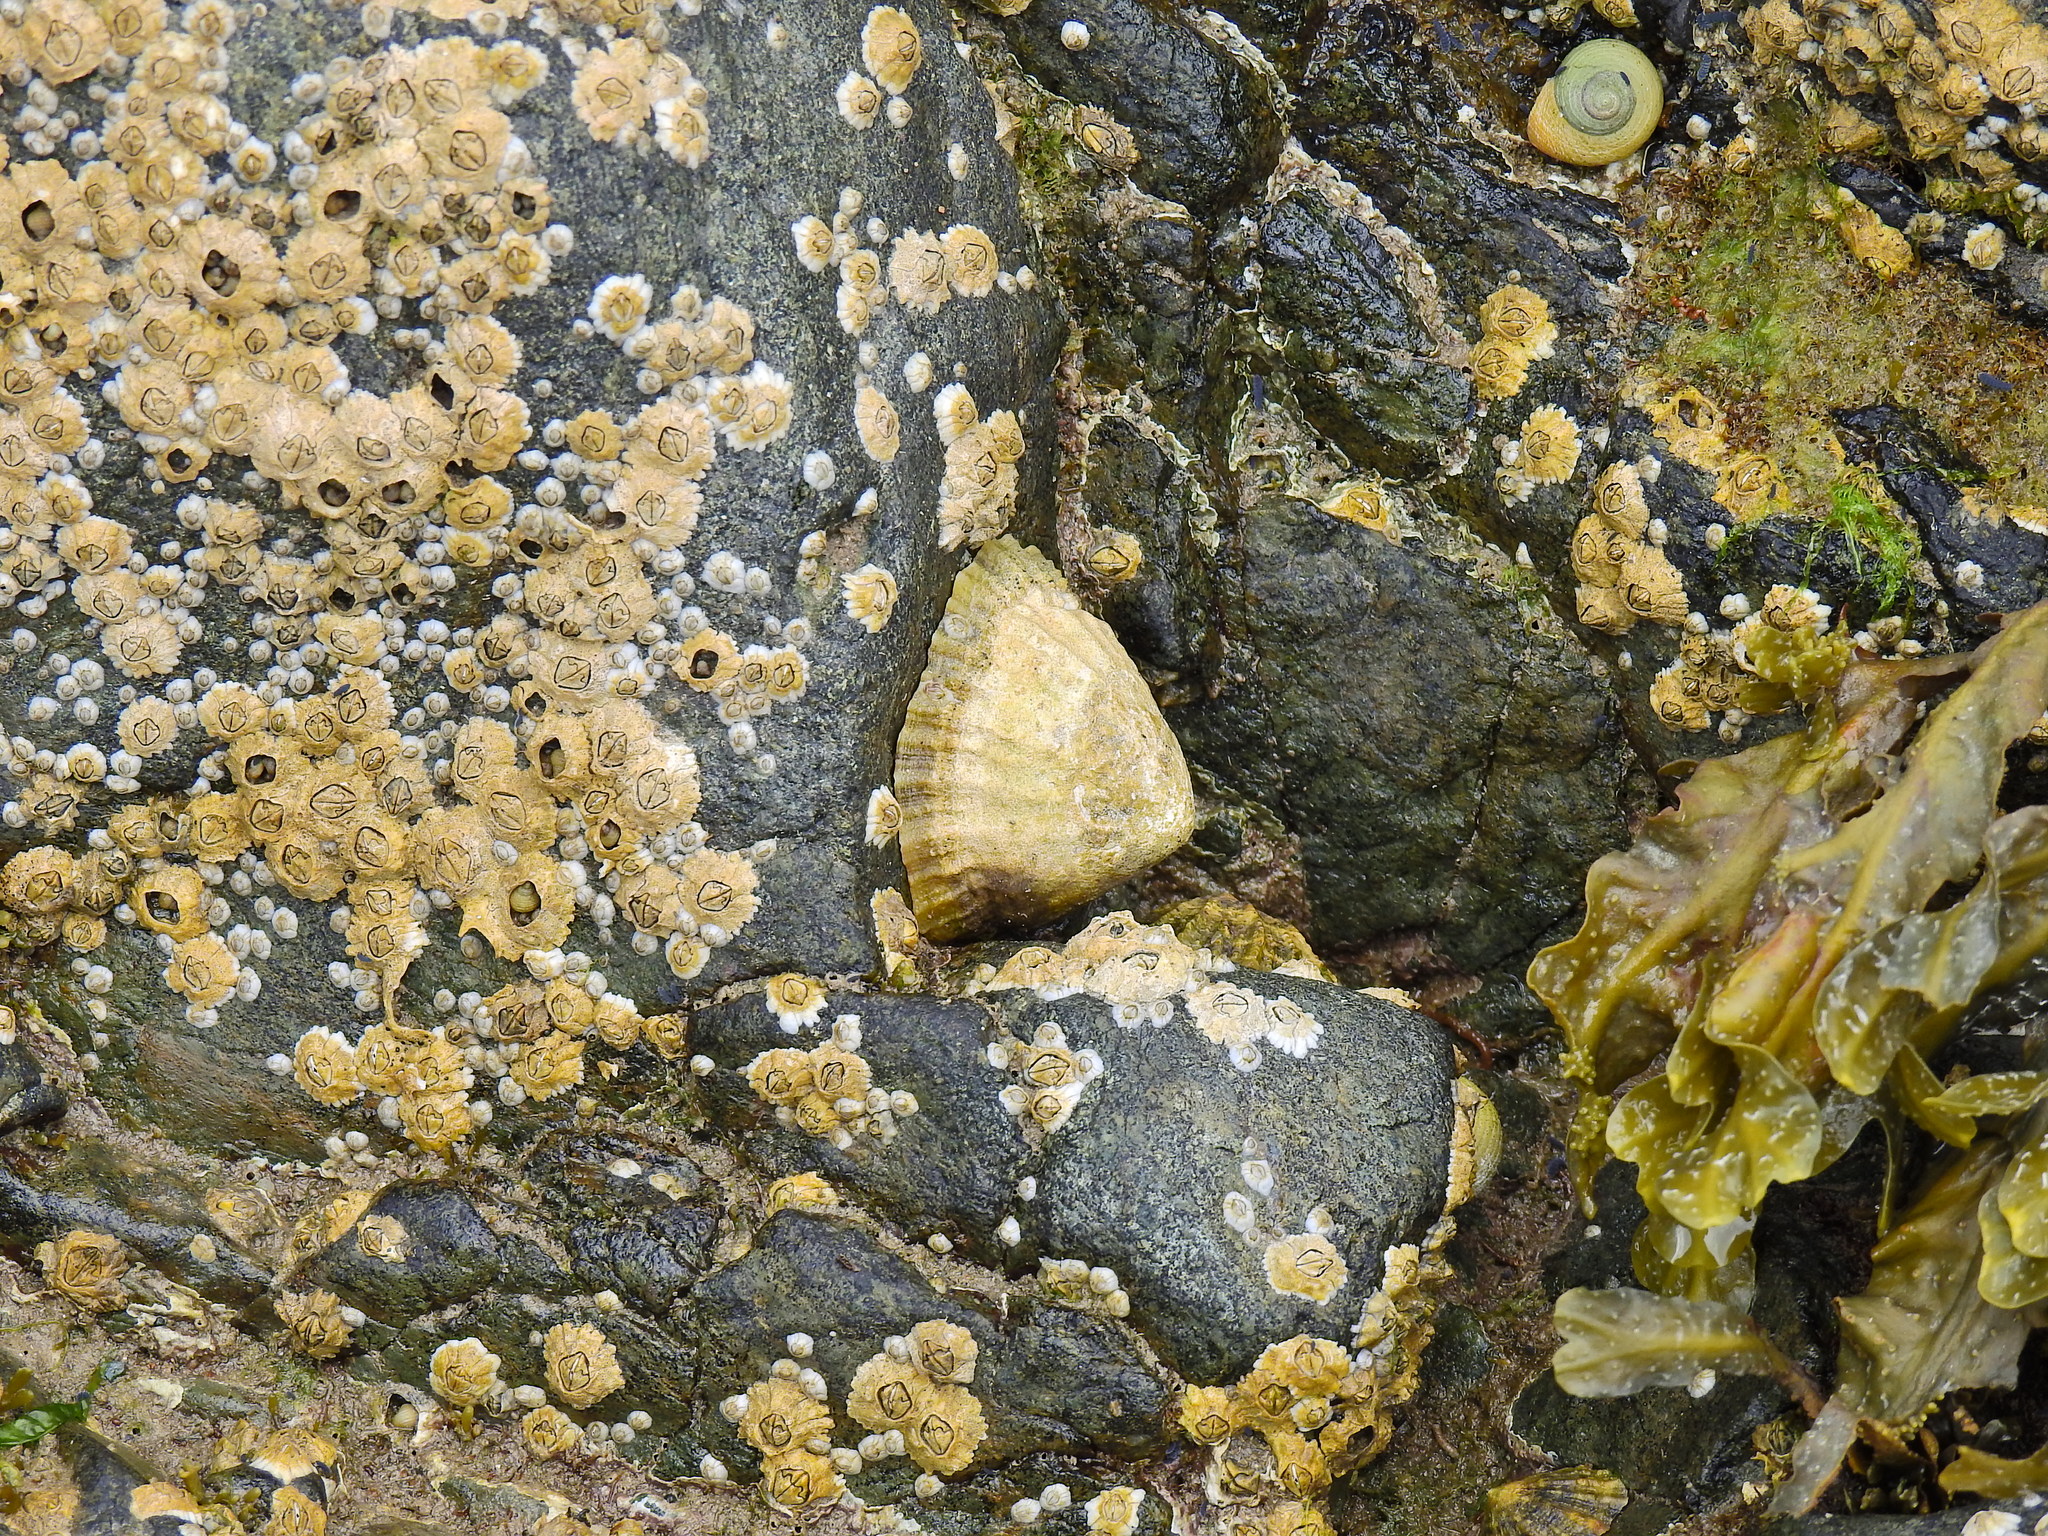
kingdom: Animalia
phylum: Mollusca
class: Gastropoda
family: Patellidae
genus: Patella
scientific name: Patella vulgata
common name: Common limpet
